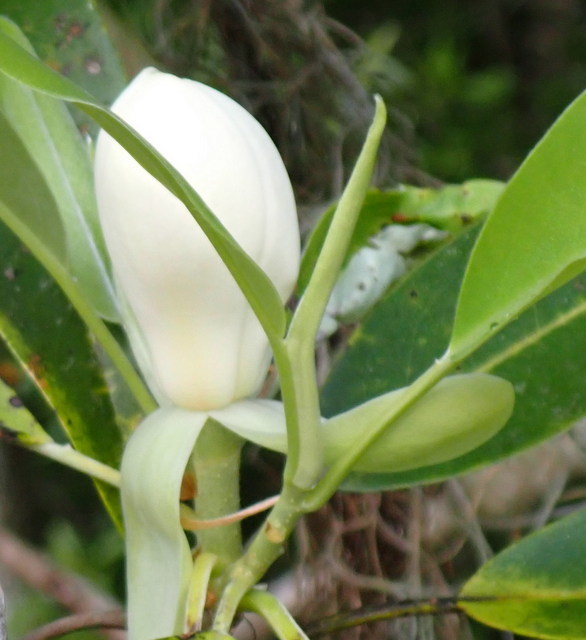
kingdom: Plantae
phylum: Tracheophyta
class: Magnoliopsida
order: Magnoliales
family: Magnoliaceae
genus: Magnolia
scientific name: Magnolia virginiana
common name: Swamp bay
